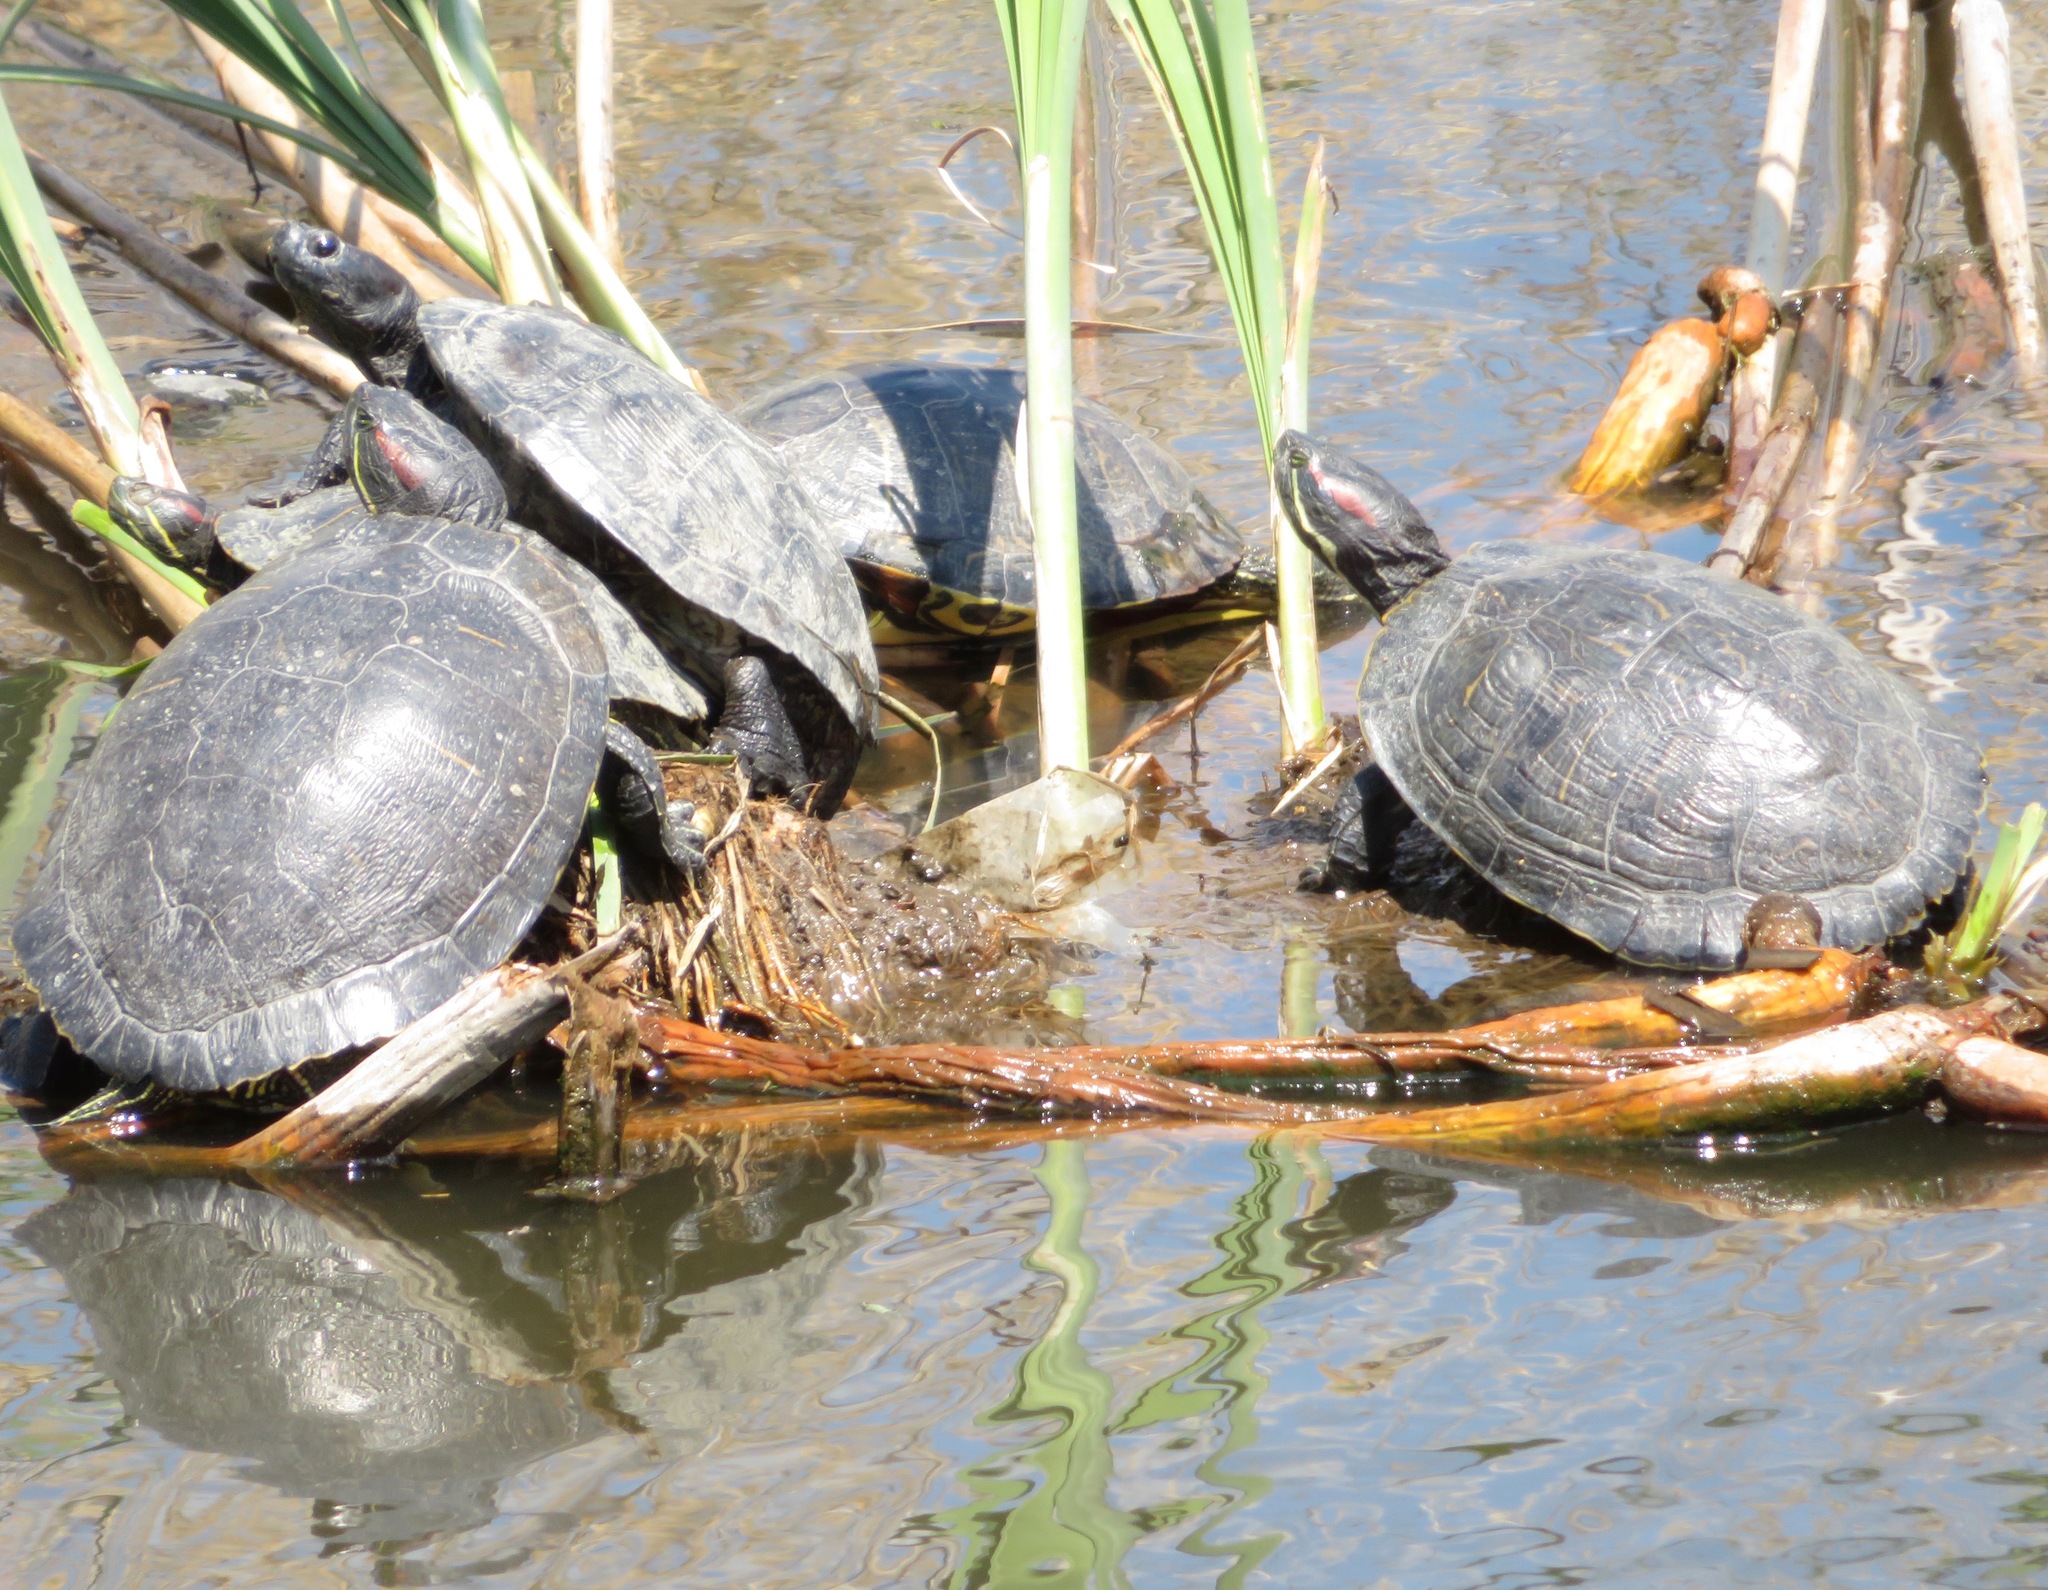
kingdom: Animalia
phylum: Chordata
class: Testudines
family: Emydidae
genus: Trachemys
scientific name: Trachemys scripta
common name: Slider
